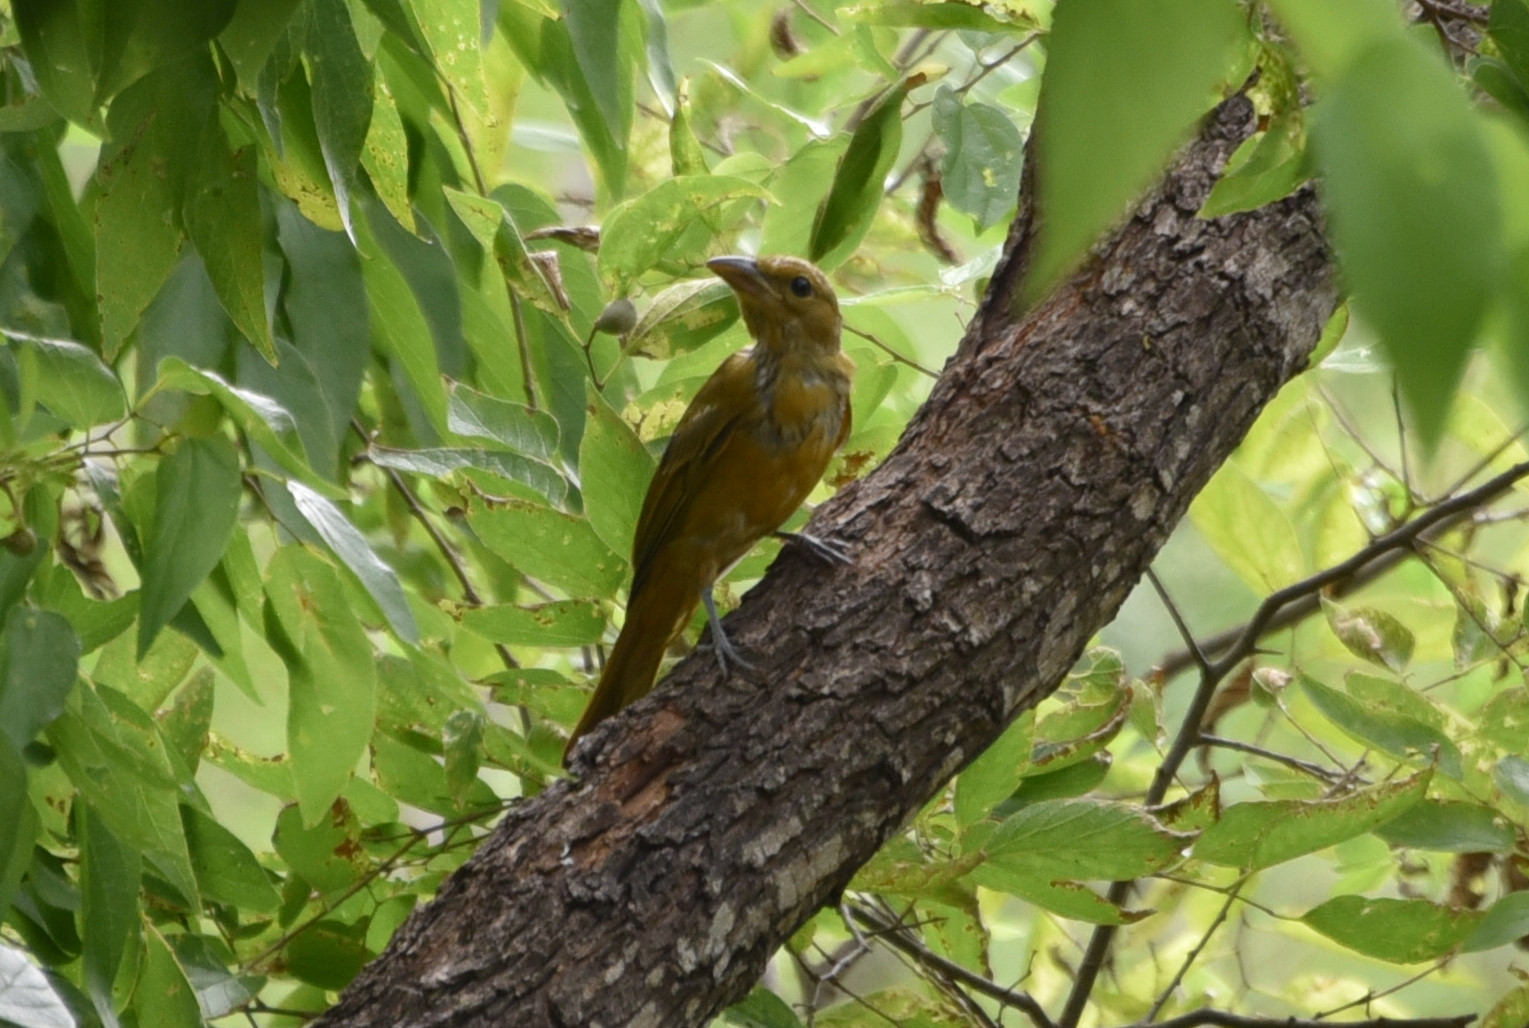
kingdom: Animalia
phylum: Chordata
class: Aves
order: Passeriformes
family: Cardinalidae
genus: Piranga
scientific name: Piranga rubra
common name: Summer tanager
